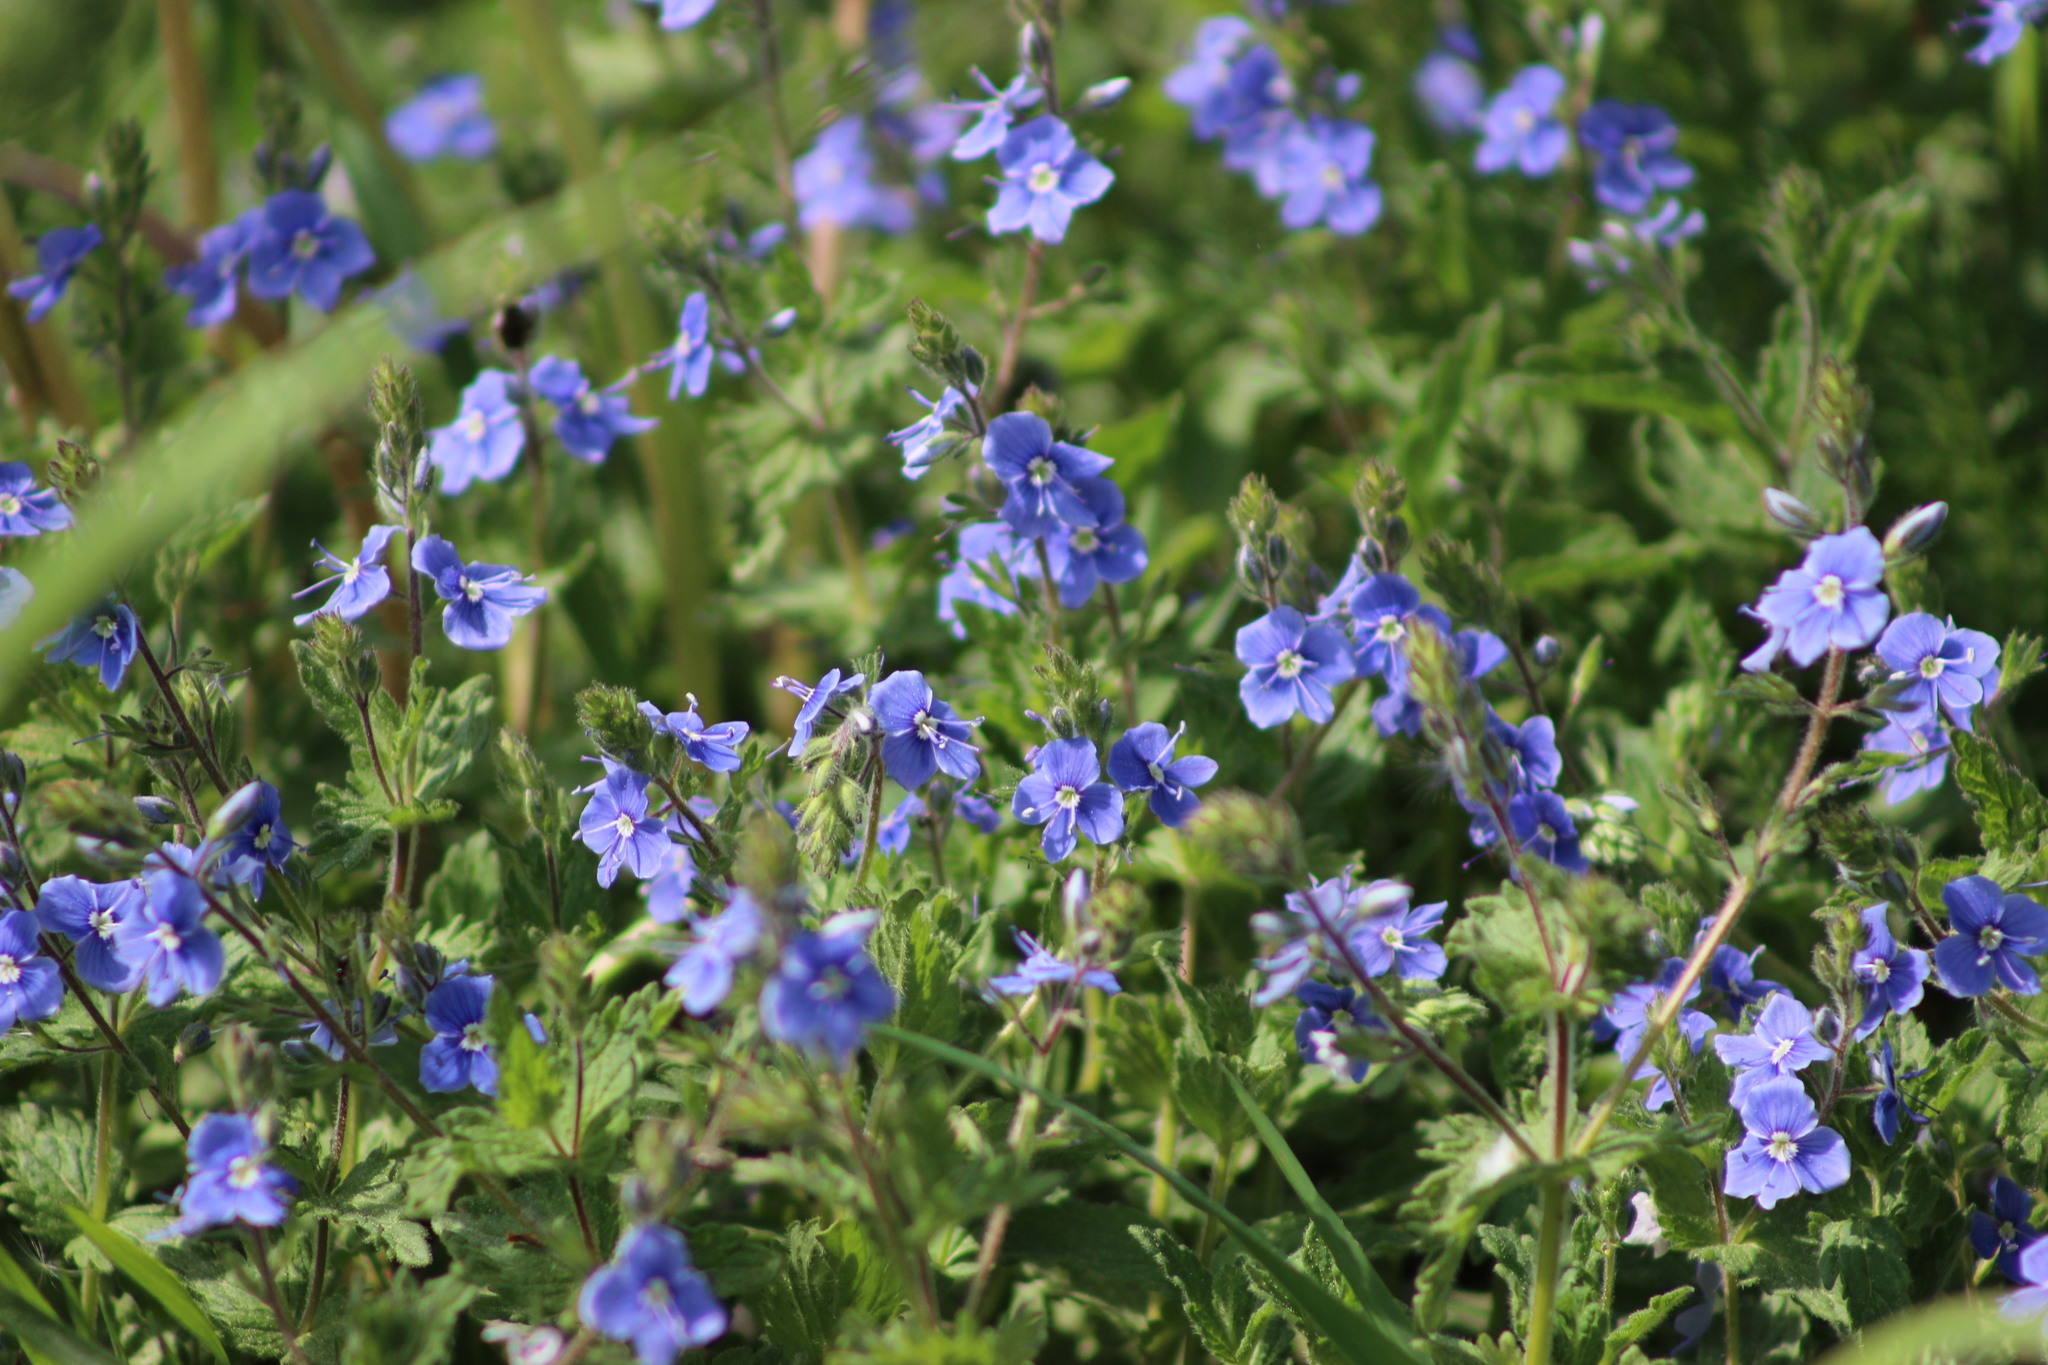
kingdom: Plantae
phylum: Tracheophyta
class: Magnoliopsida
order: Lamiales
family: Plantaginaceae
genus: Veronica
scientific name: Veronica chamaedrys
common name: Germander speedwell
